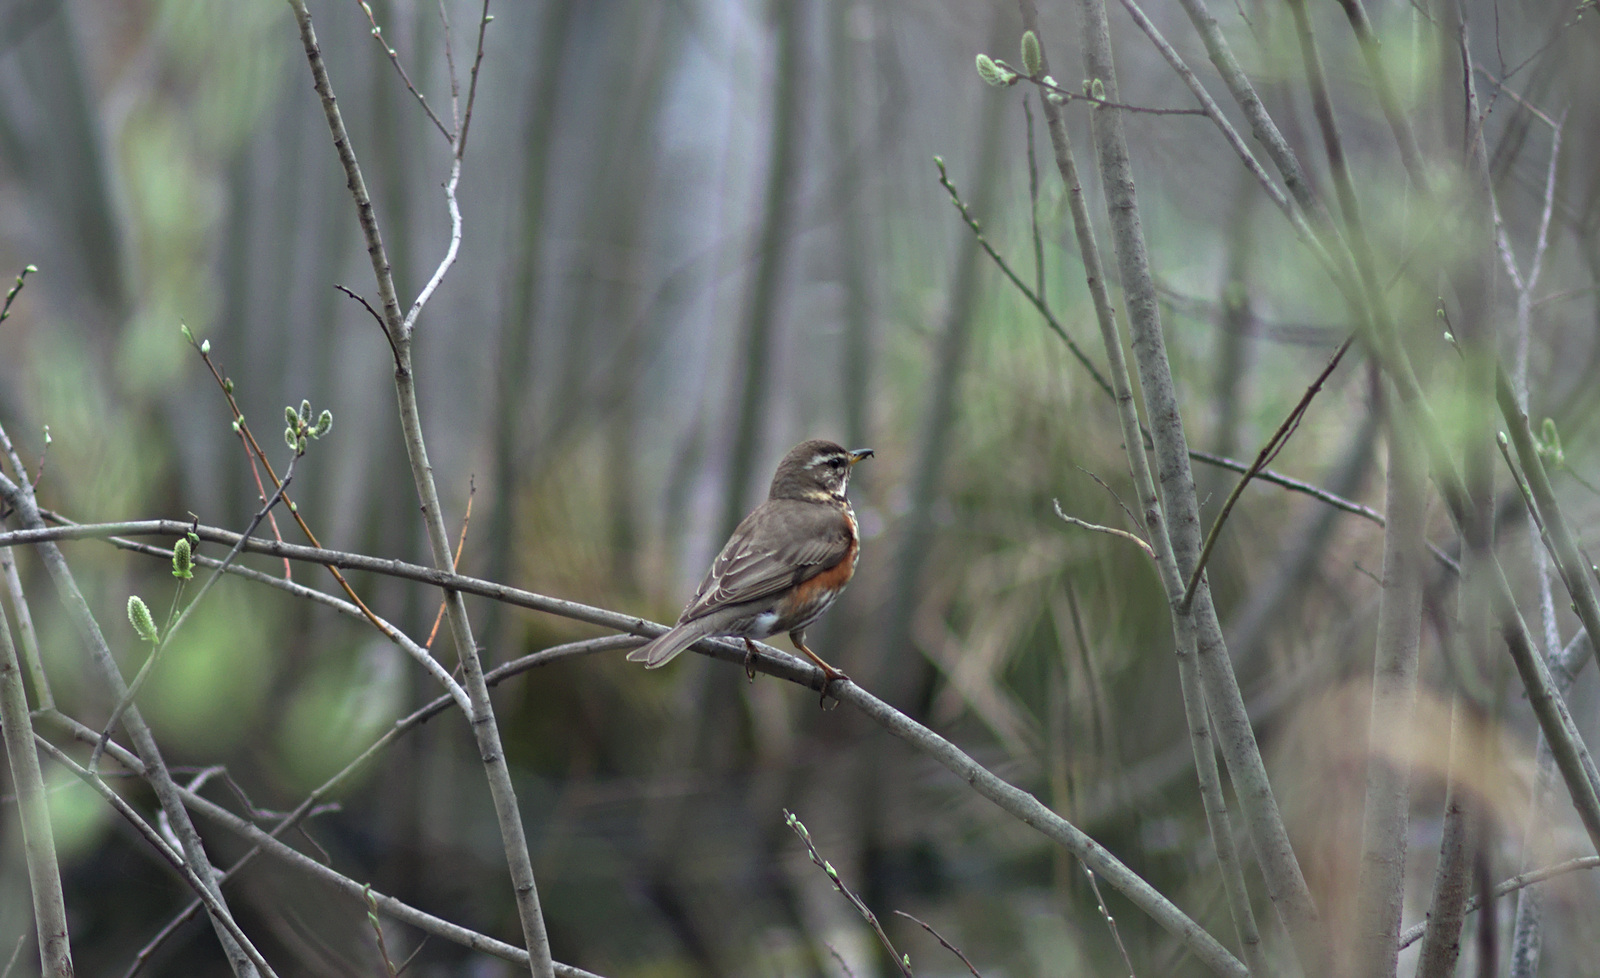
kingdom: Animalia
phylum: Chordata
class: Aves
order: Passeriformes
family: Turdidae
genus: Turdus
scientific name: Turdus iliacus
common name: Redwing
